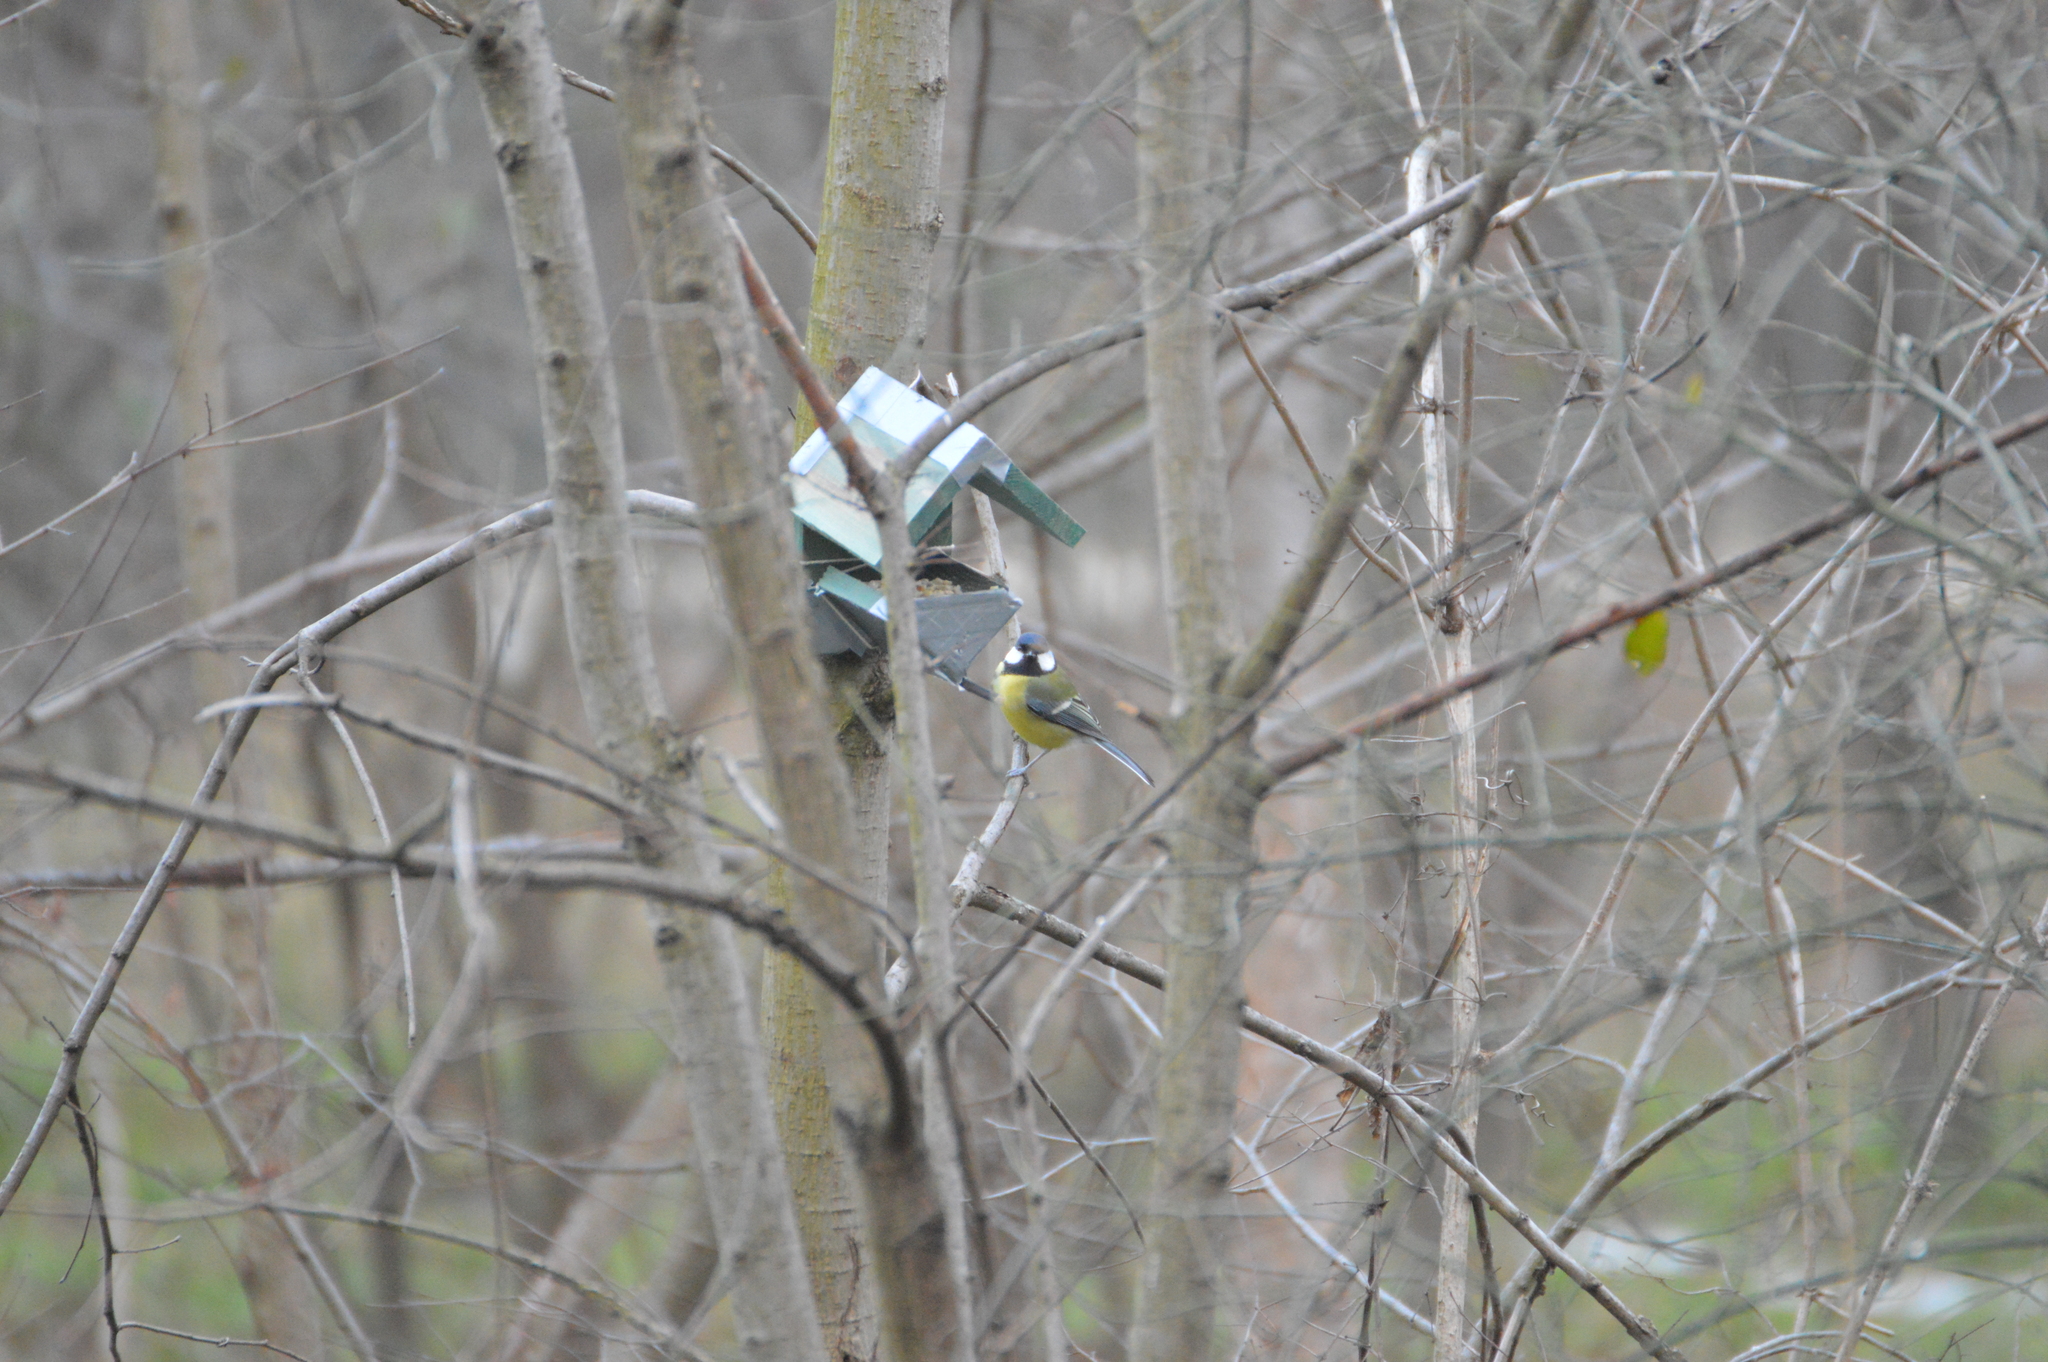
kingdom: Animalia
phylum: Chordata
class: Aves
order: Passeriformes
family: Paridae
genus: Parus
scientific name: Parus major
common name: Great tit
